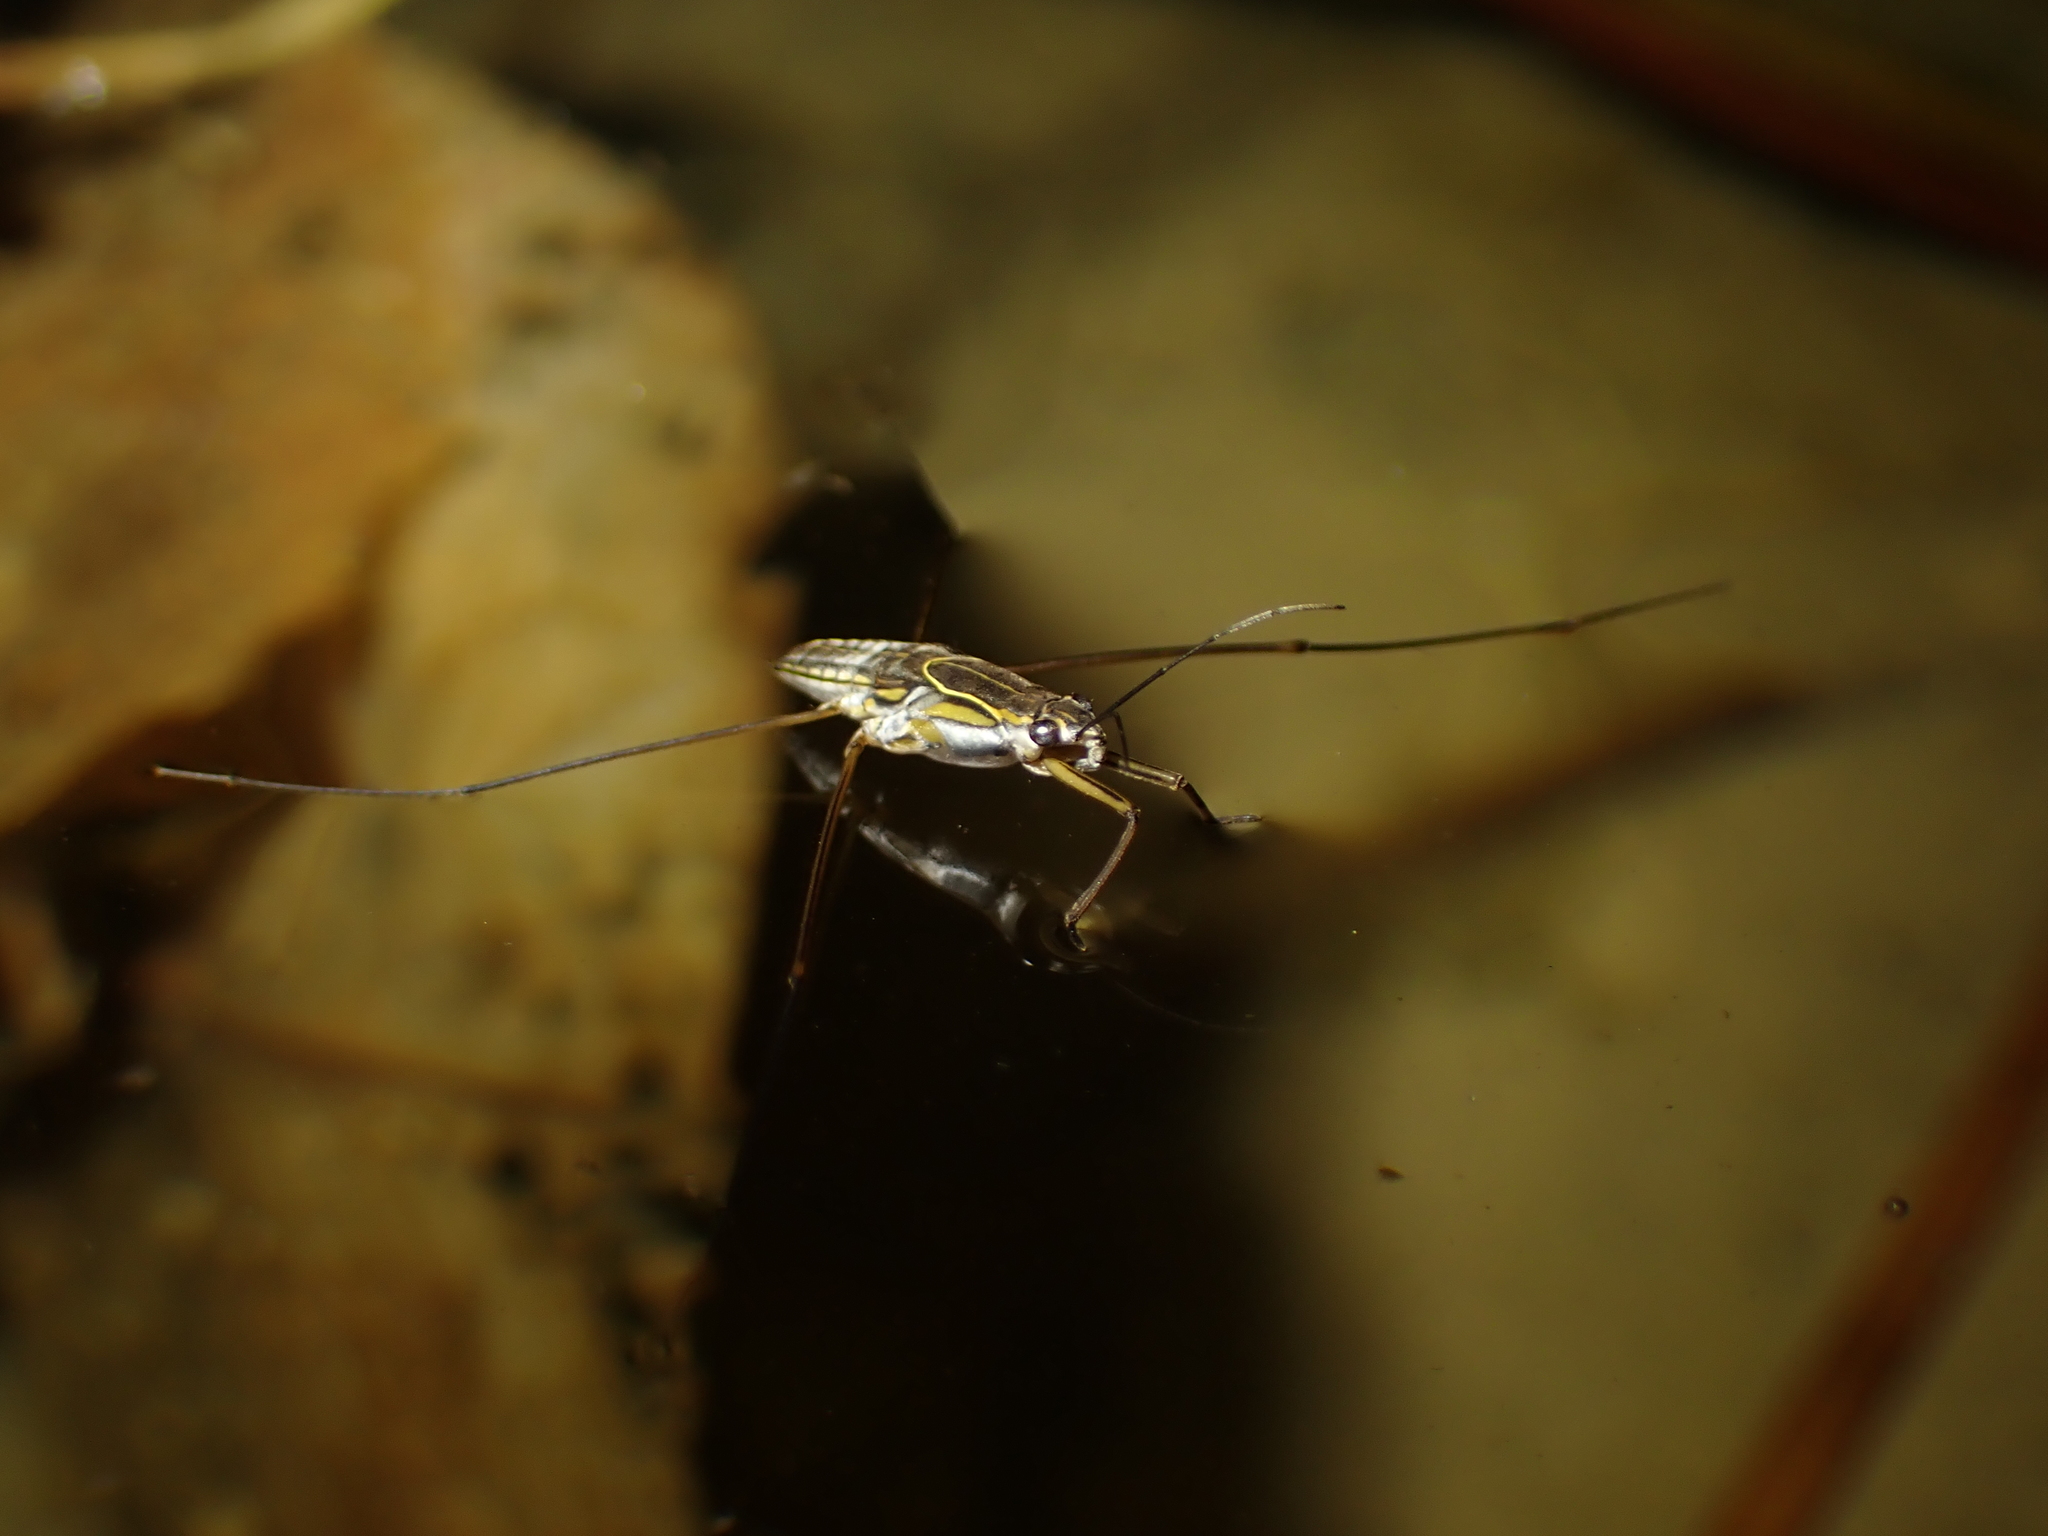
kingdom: Animalia
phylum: Arthropoda
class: Insecta
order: Hemiptera
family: Gerridae
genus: Limnogonus
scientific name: Limnogonus fossarum
